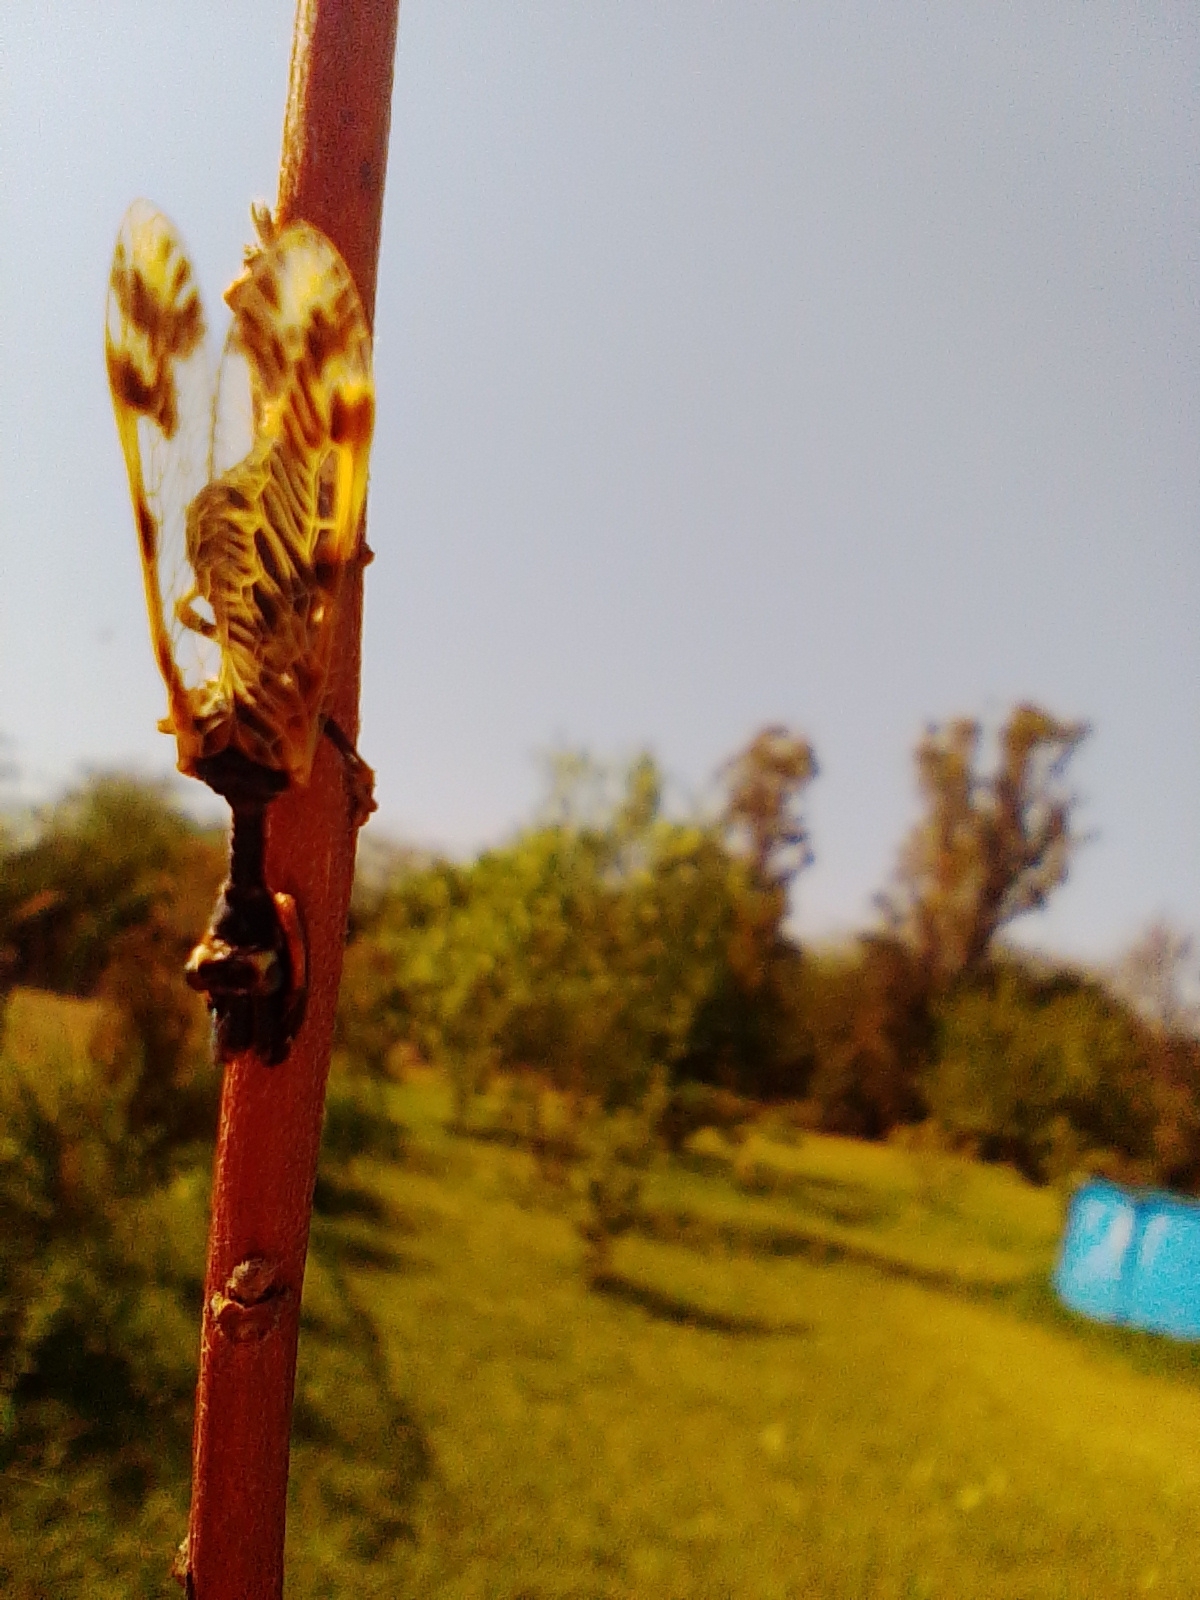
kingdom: Animalia
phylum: Arthropoda
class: Insecta
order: Neuroptera
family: Mantispidae
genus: Paramantispa
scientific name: Paramantispa ambusta
